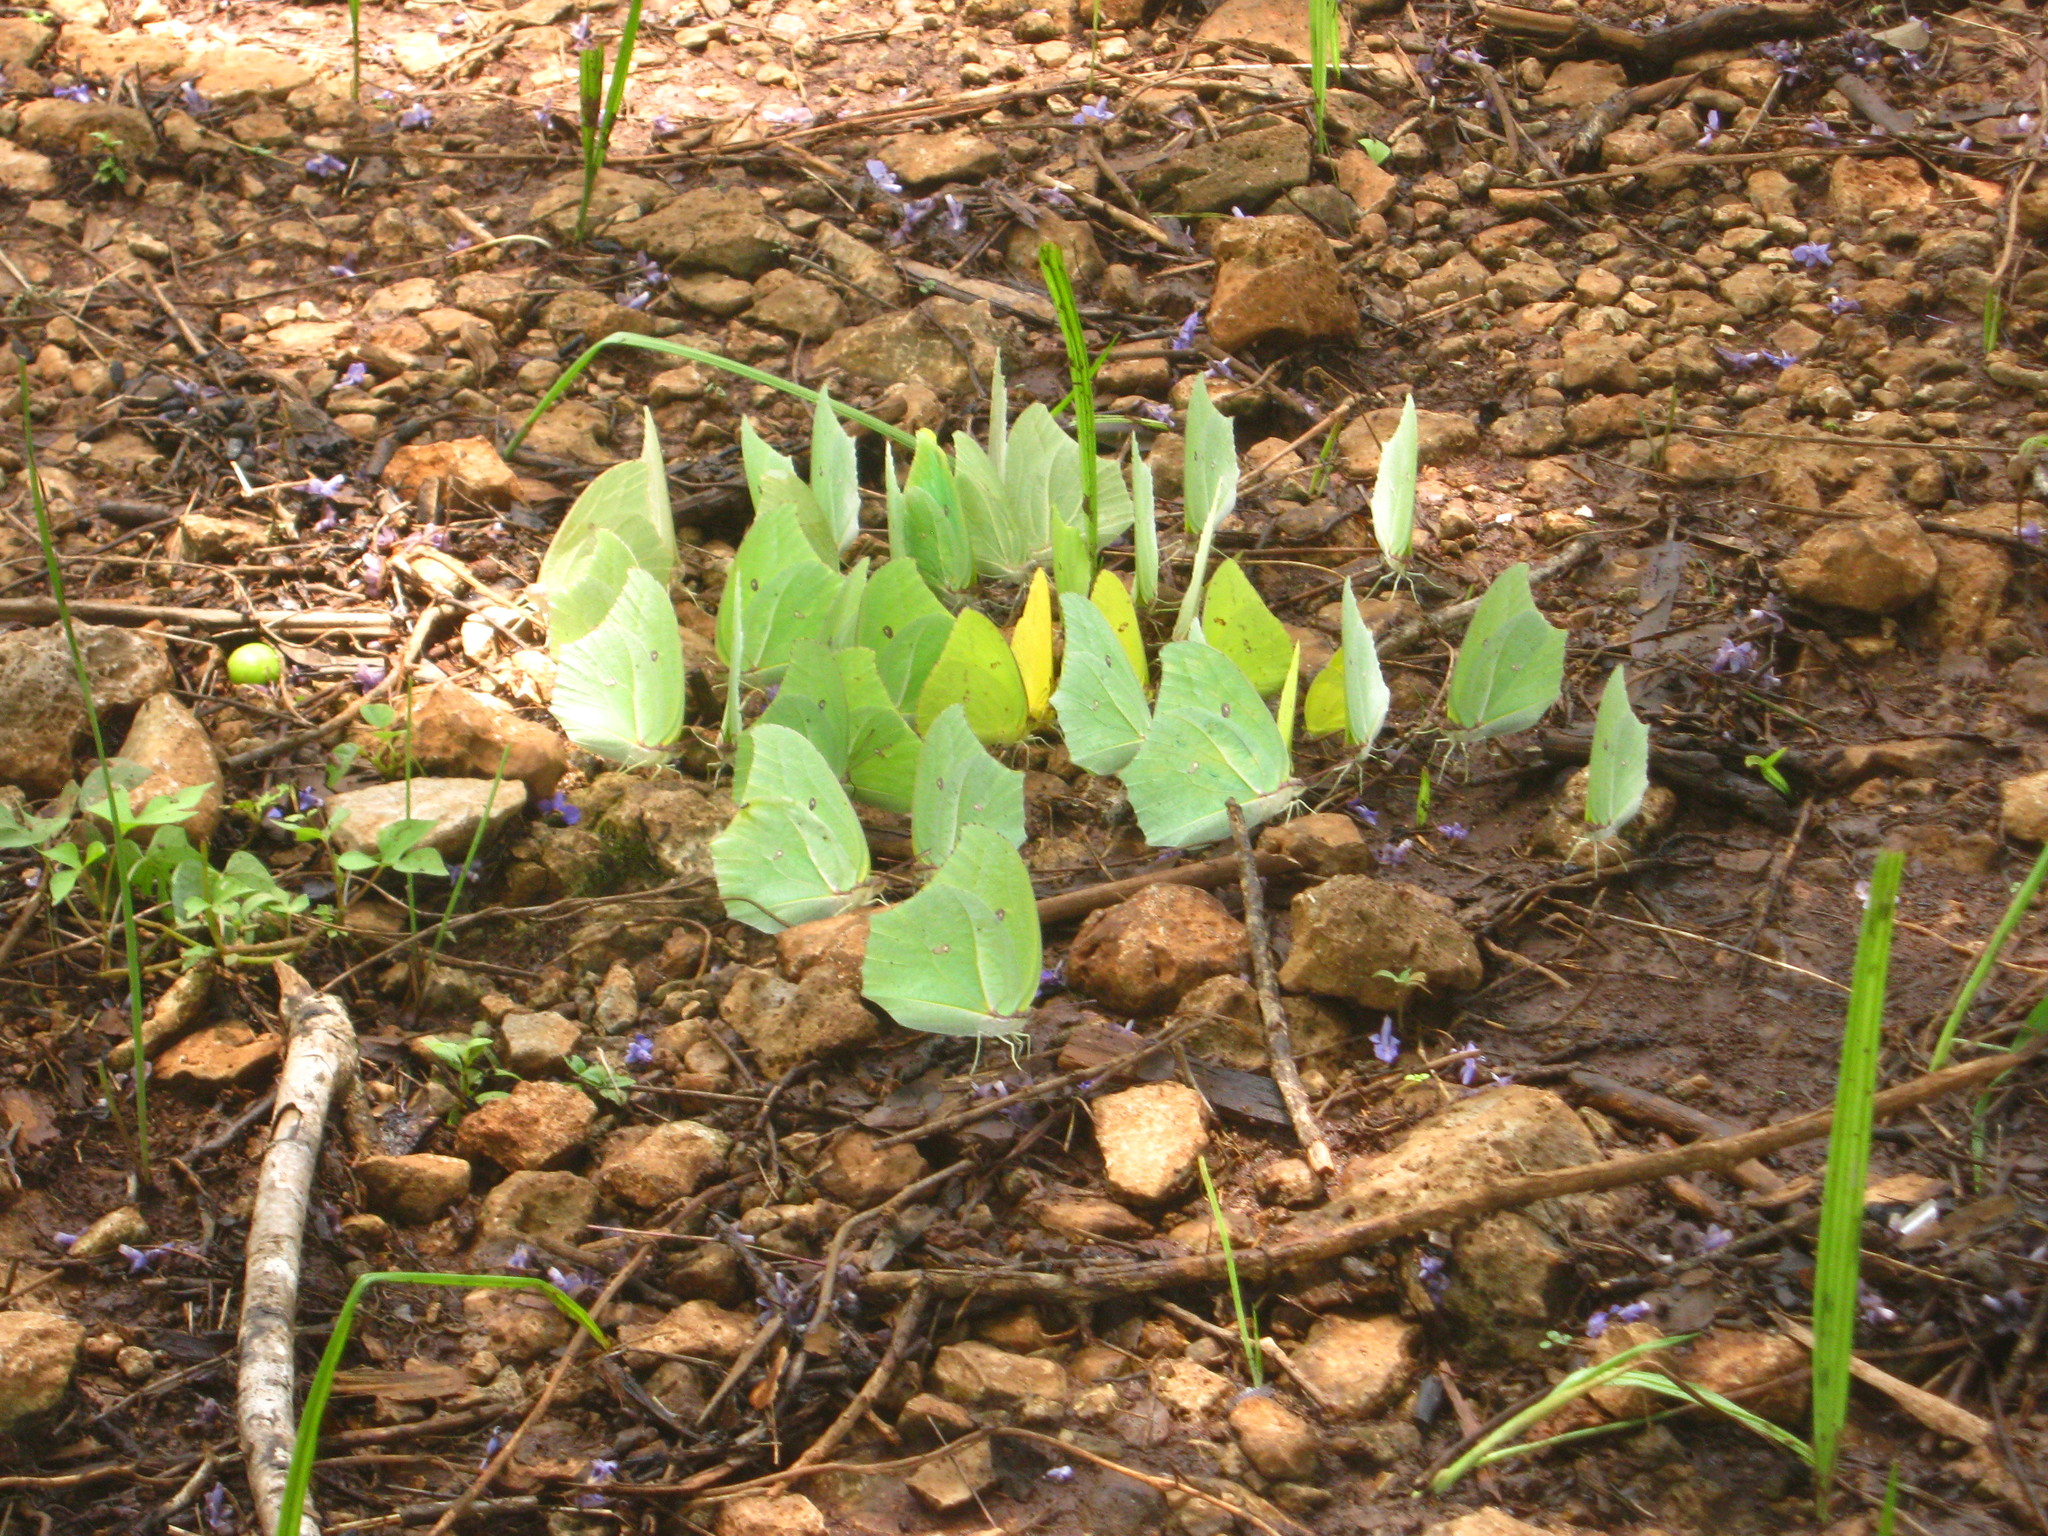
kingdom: Animalia
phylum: Arthropoda
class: Insecta
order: Lepidoptera
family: Pieridae
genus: Anteos
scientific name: Anteos maerula
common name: Angled sulphur
